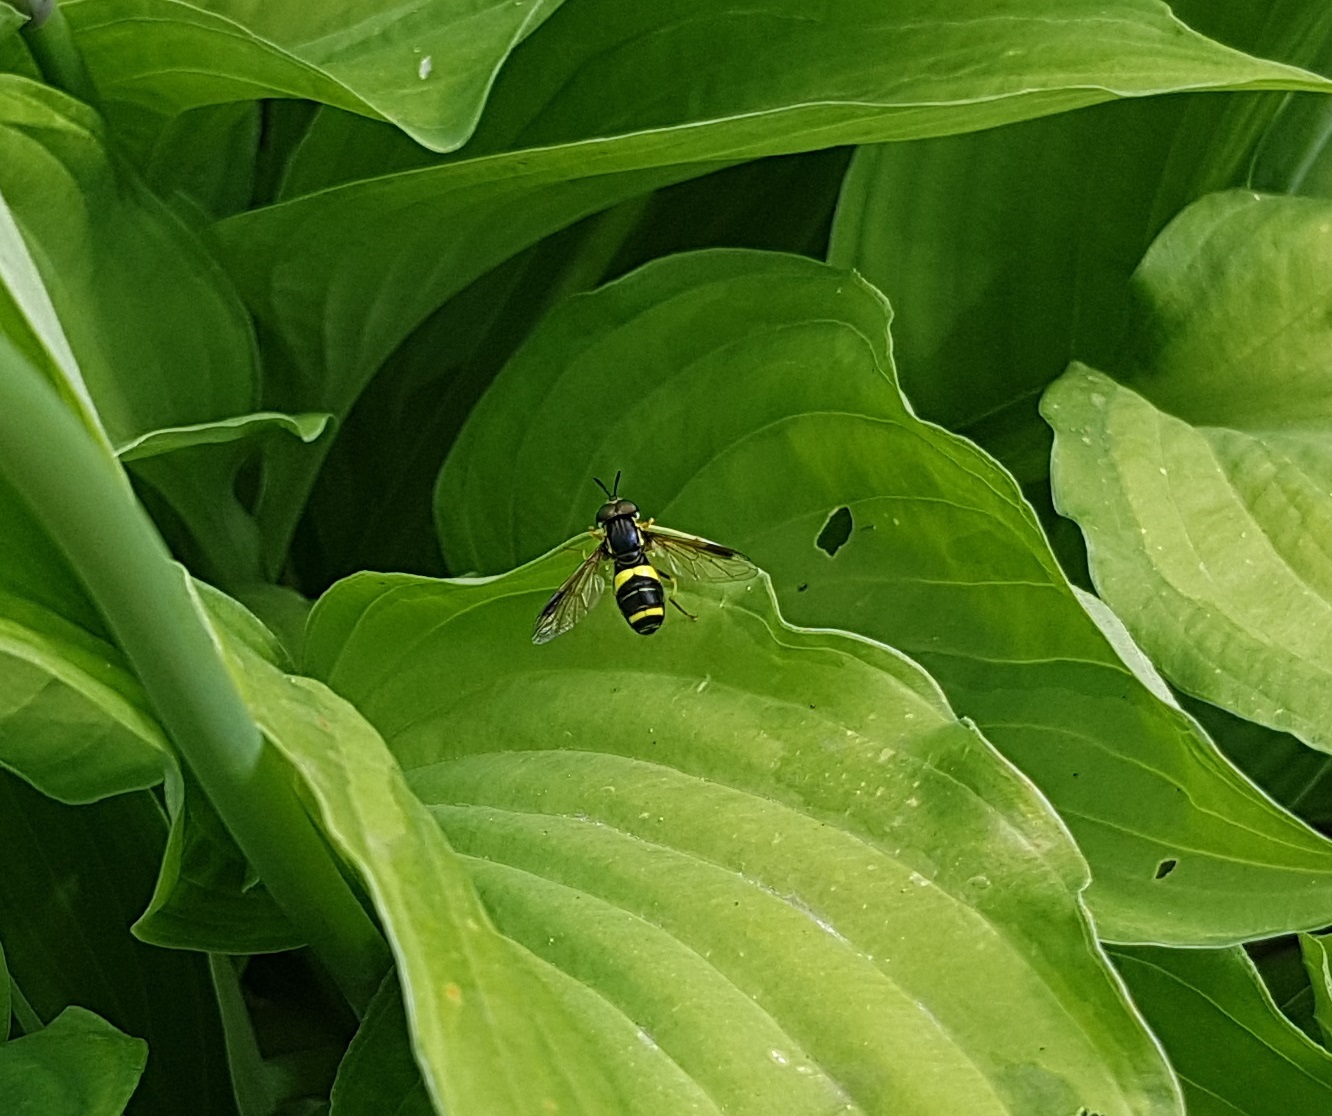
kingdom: Animalia
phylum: Arthropoda
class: Insecta
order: Diptera
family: Syrphidae
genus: Chrysotoxum
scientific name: Chrysotoxum bicincta
